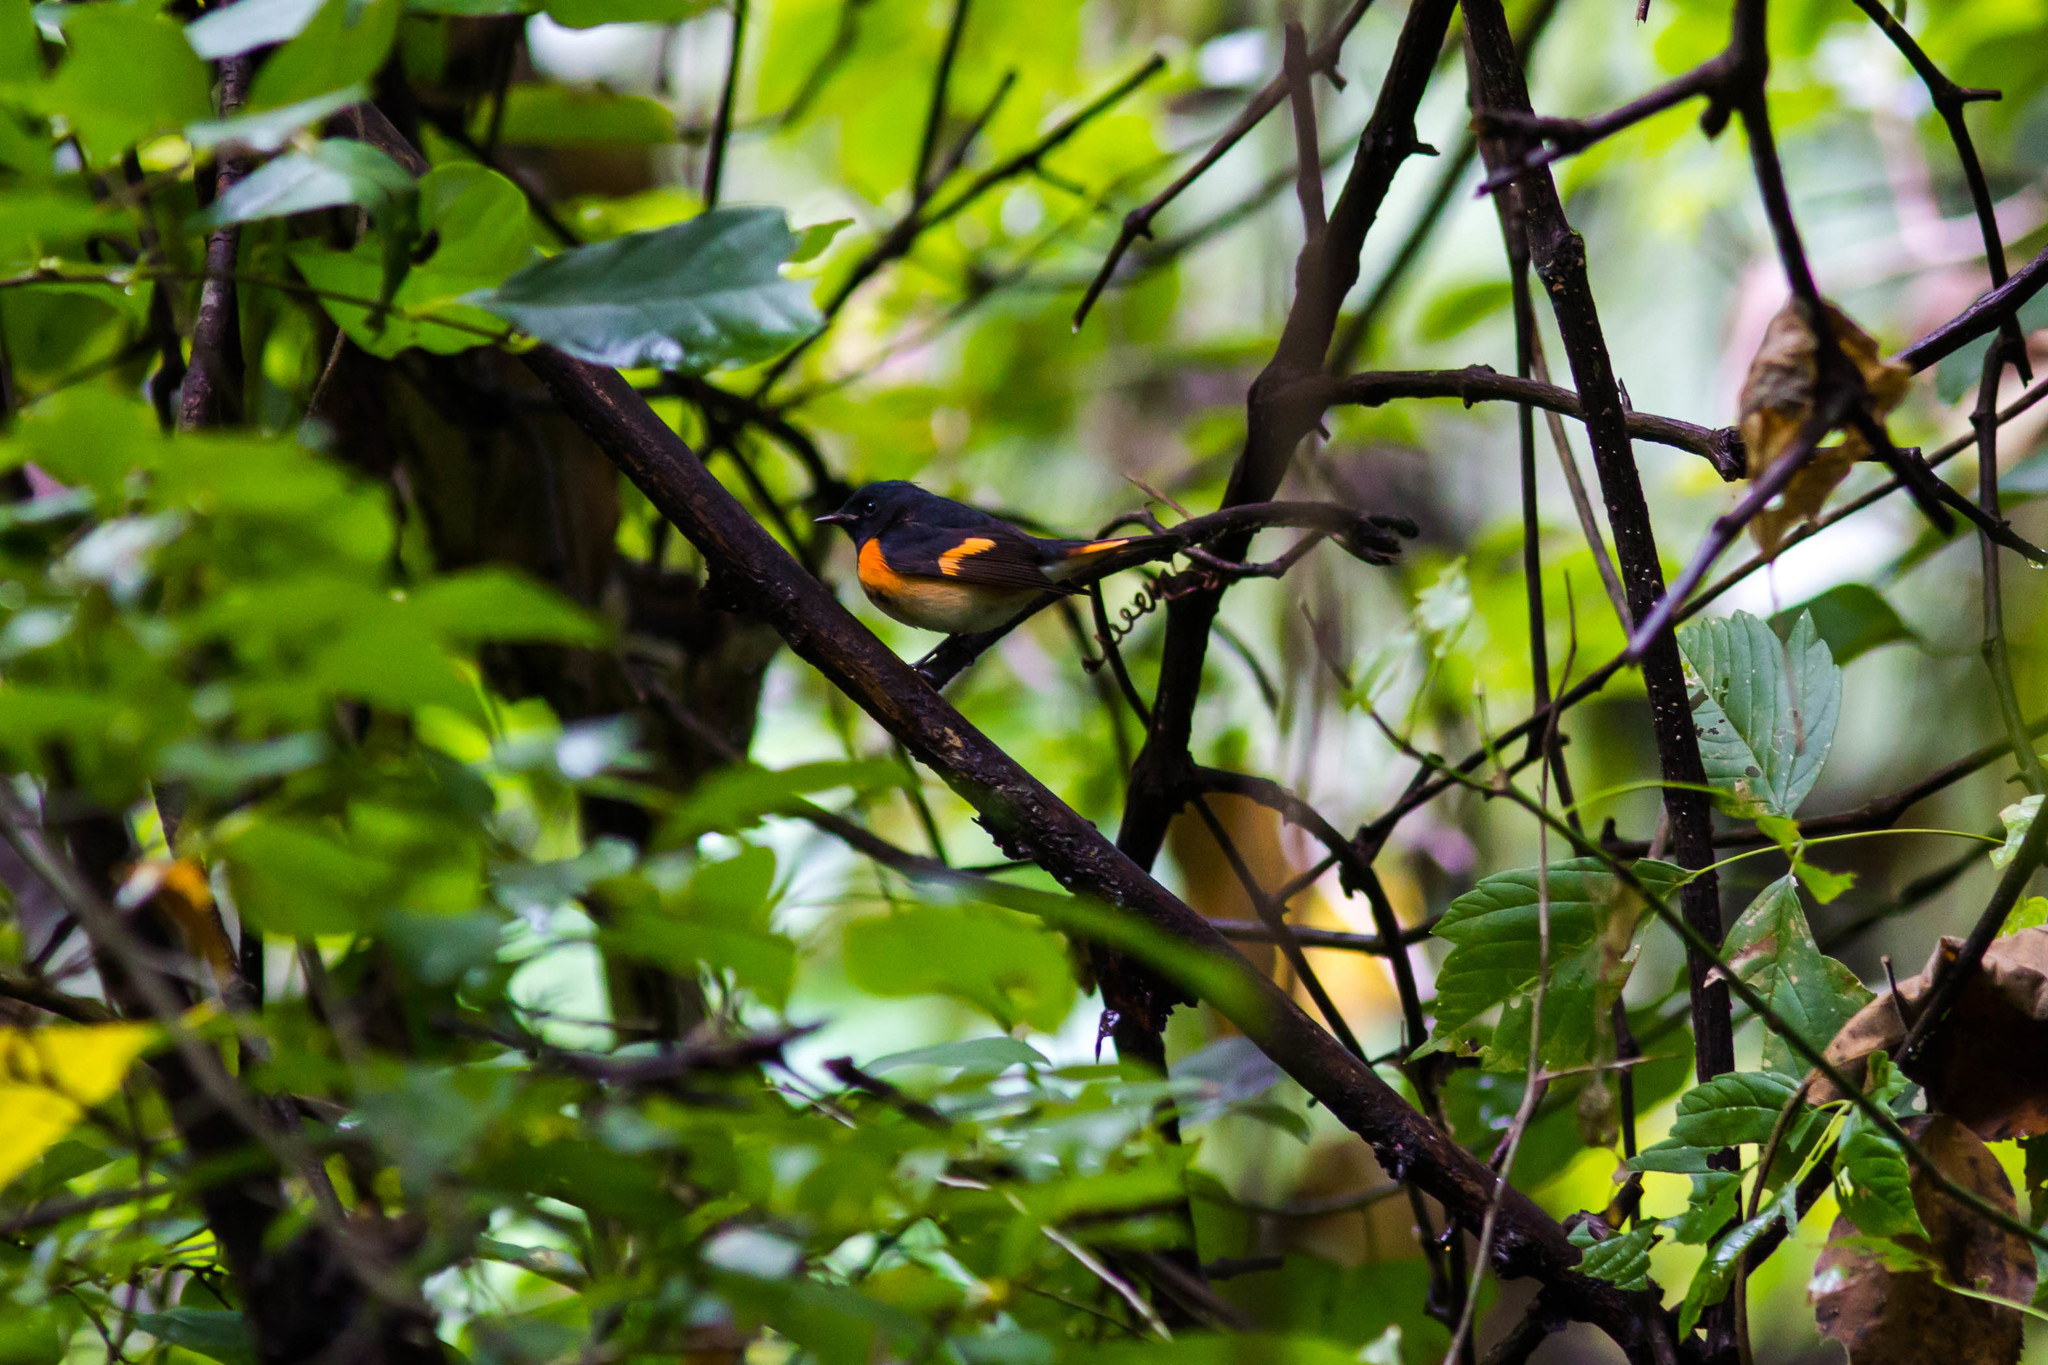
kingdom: Animalia
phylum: Chordata
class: Aves
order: Passeriformes
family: Parulidae
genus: Setophaga
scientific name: Setophaga ruticilla
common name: American redstart
